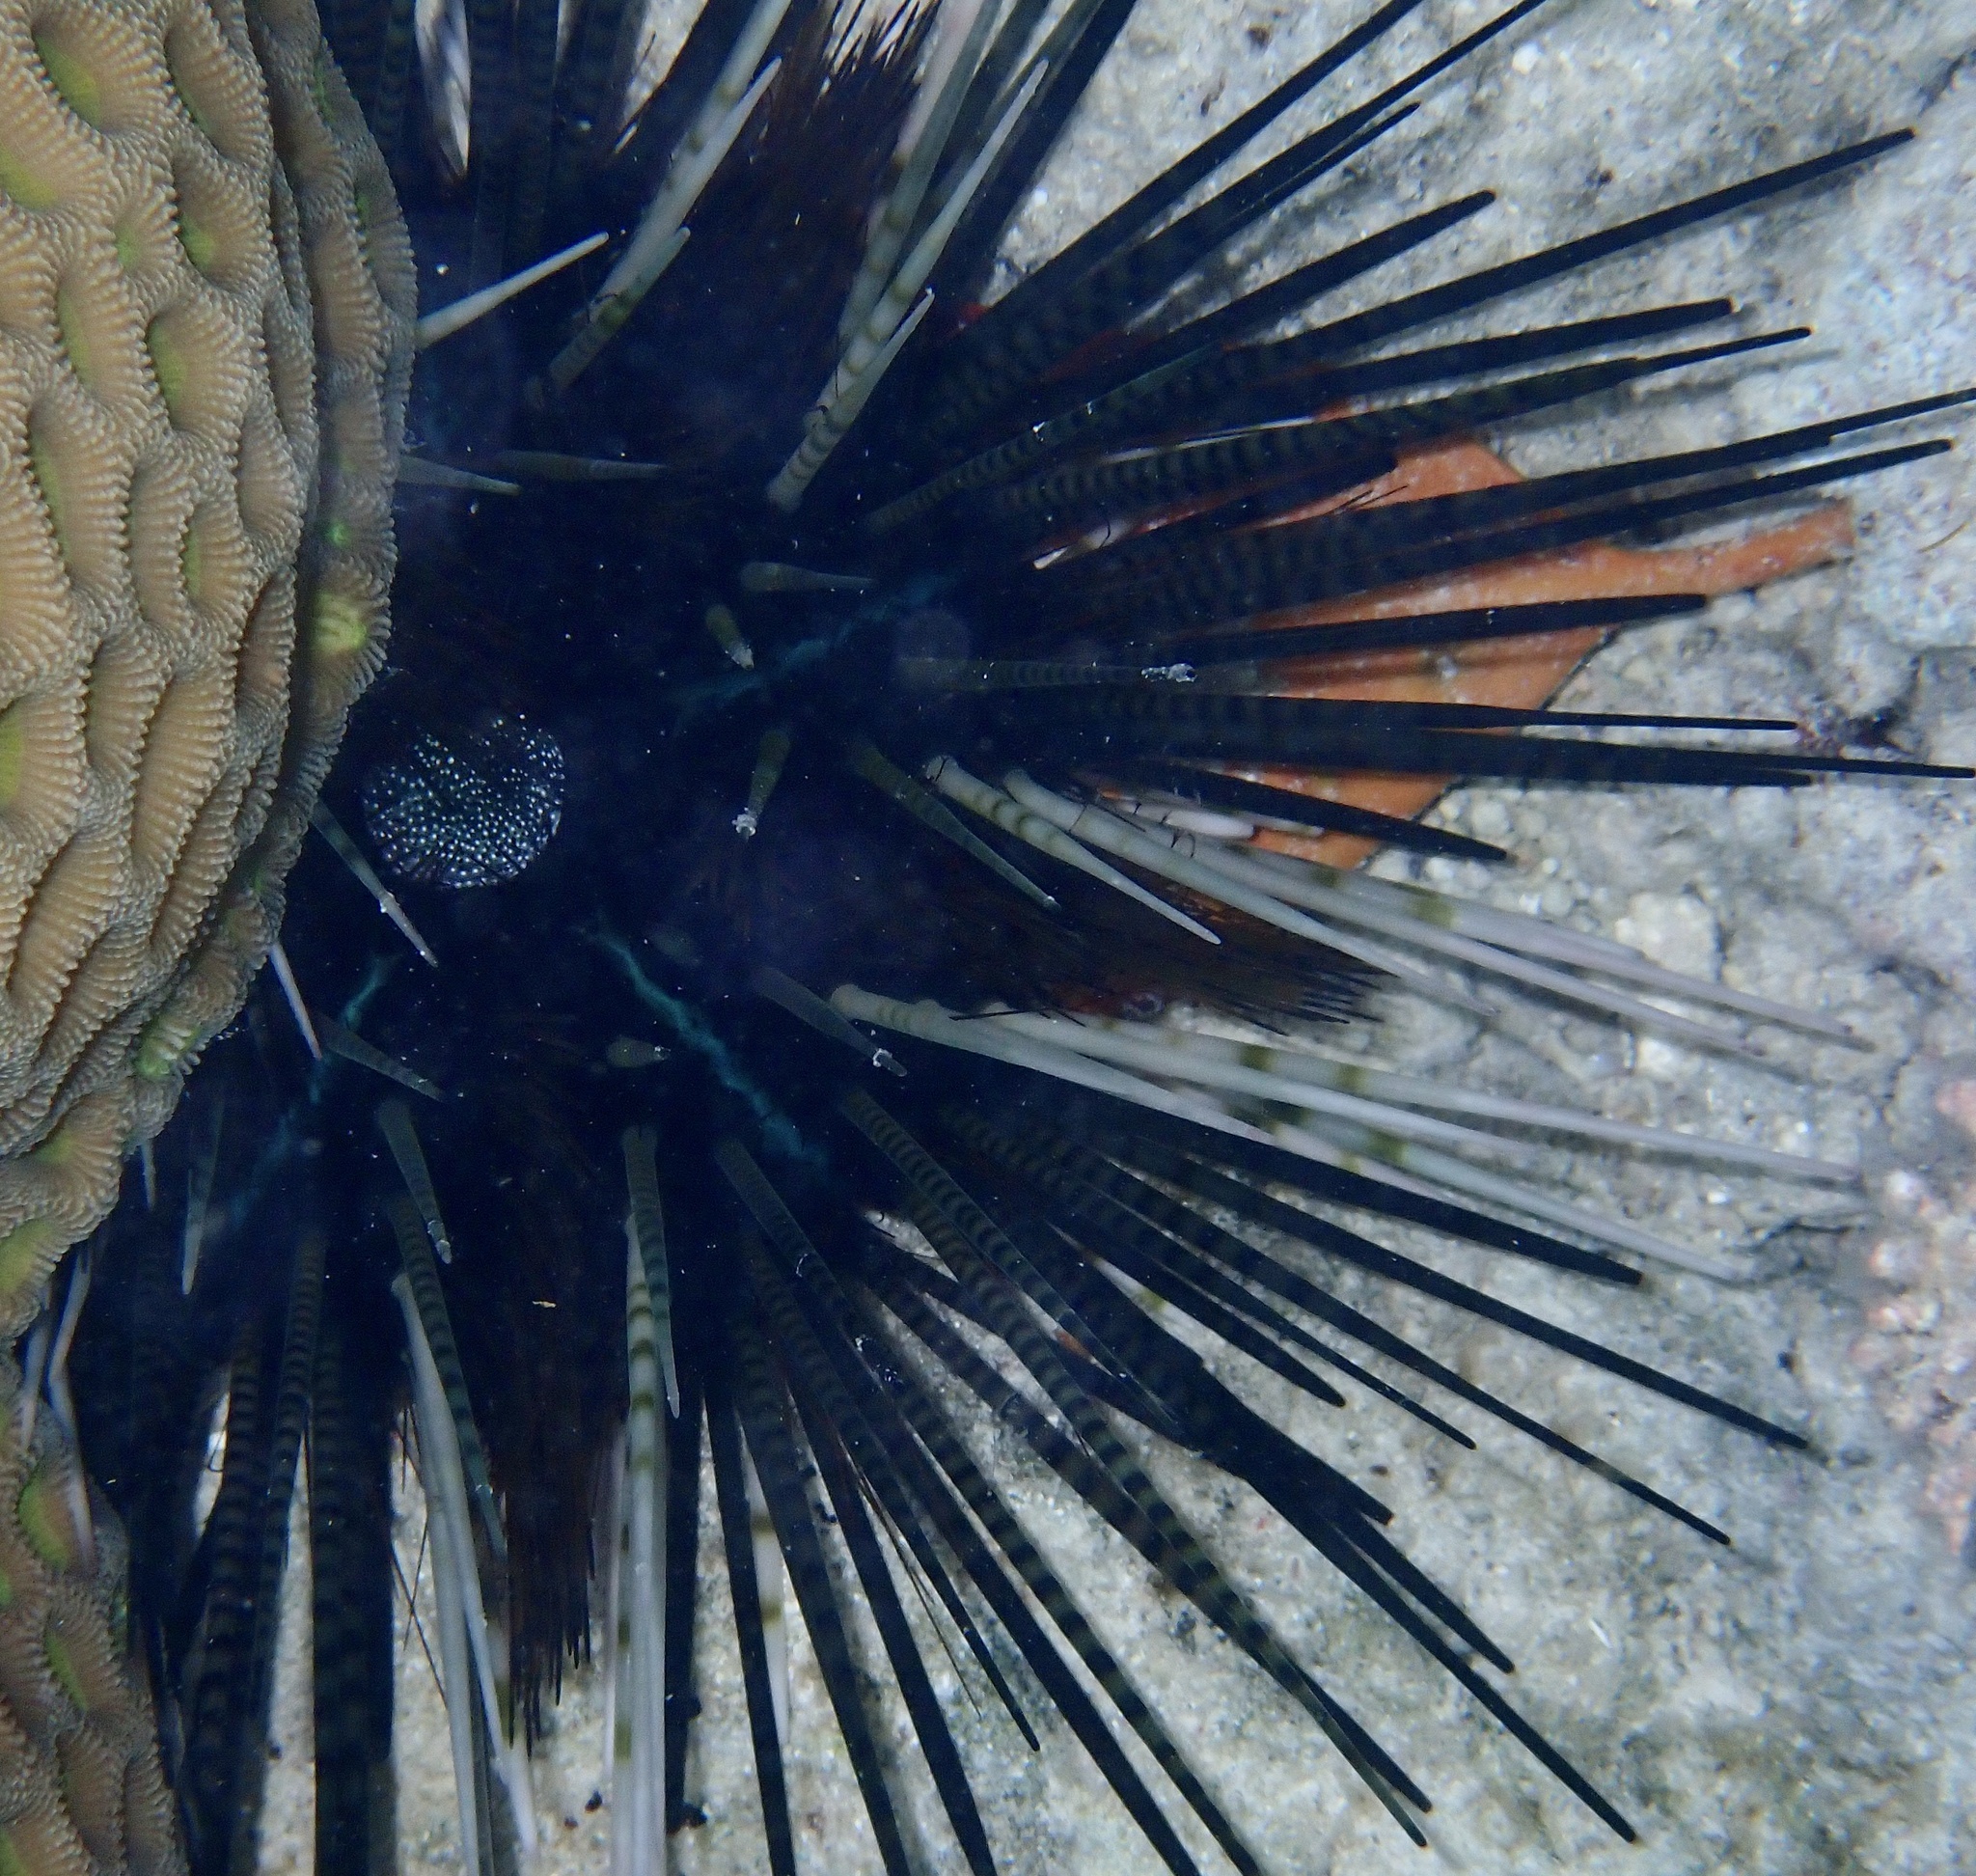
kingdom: Animalia
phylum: Echinodermata
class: Echinoidea
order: Diadematoida
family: Diadematidae
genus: Echinothrix
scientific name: Echinothrix calamaris
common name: Banded sea urchin
